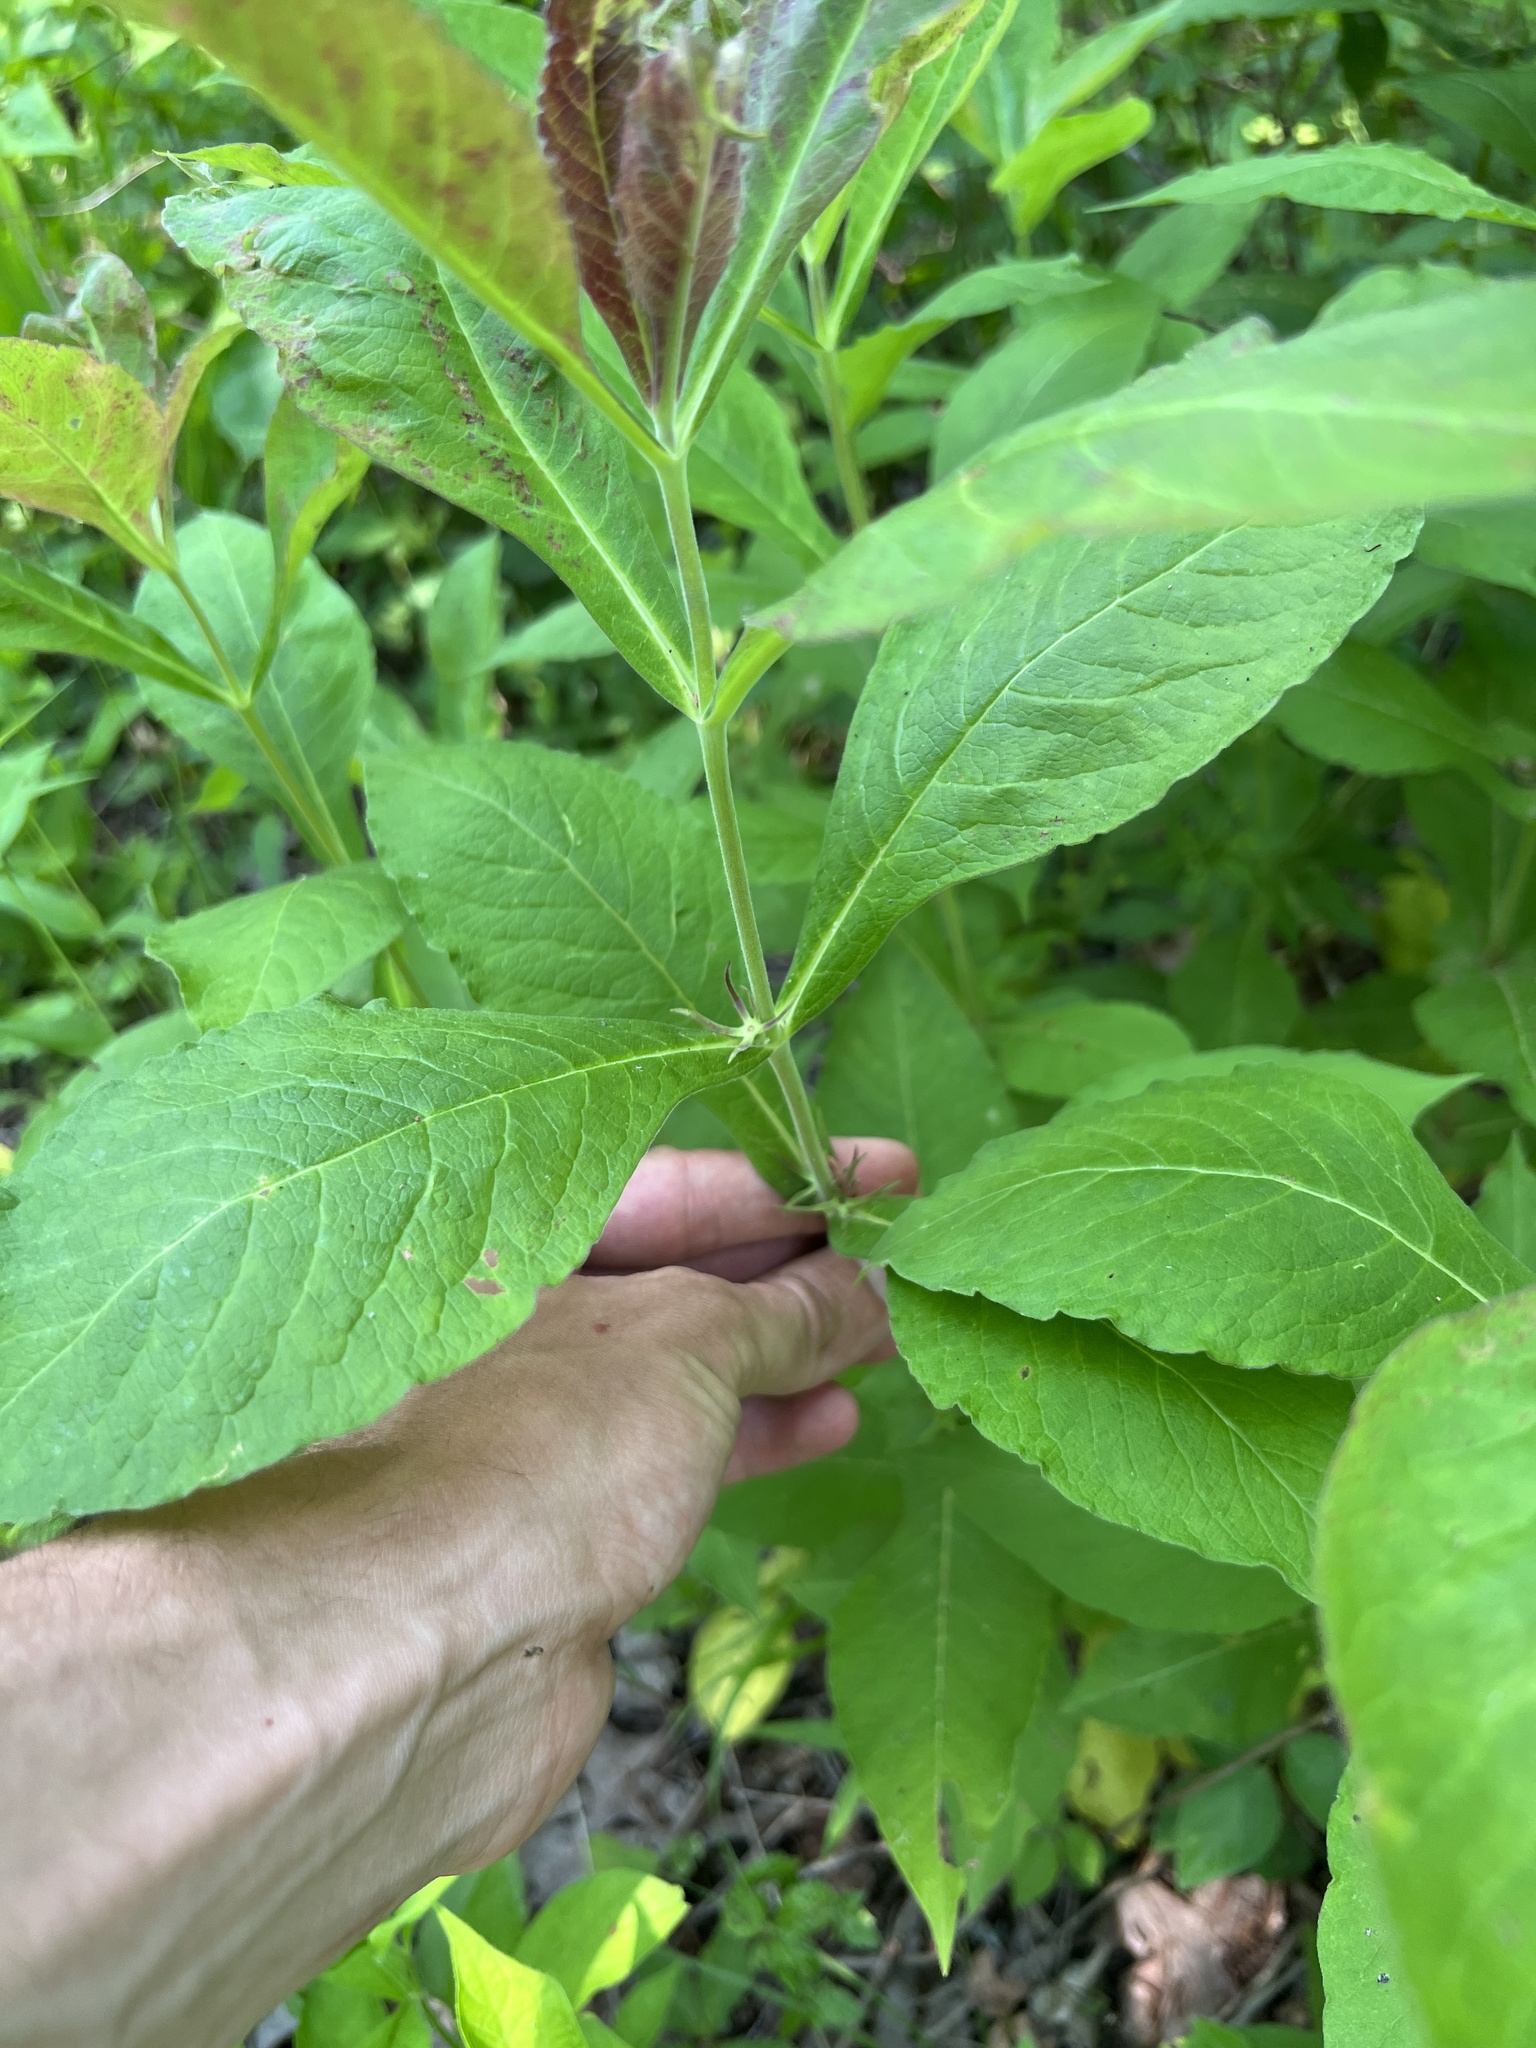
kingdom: Plantae
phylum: Tracheophyta
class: Magnoliopsida
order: Dipsacales
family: Caprifoliaceae
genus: Triosteum
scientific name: Triosteum aurantiacum
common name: Coffee tinker's-weed
